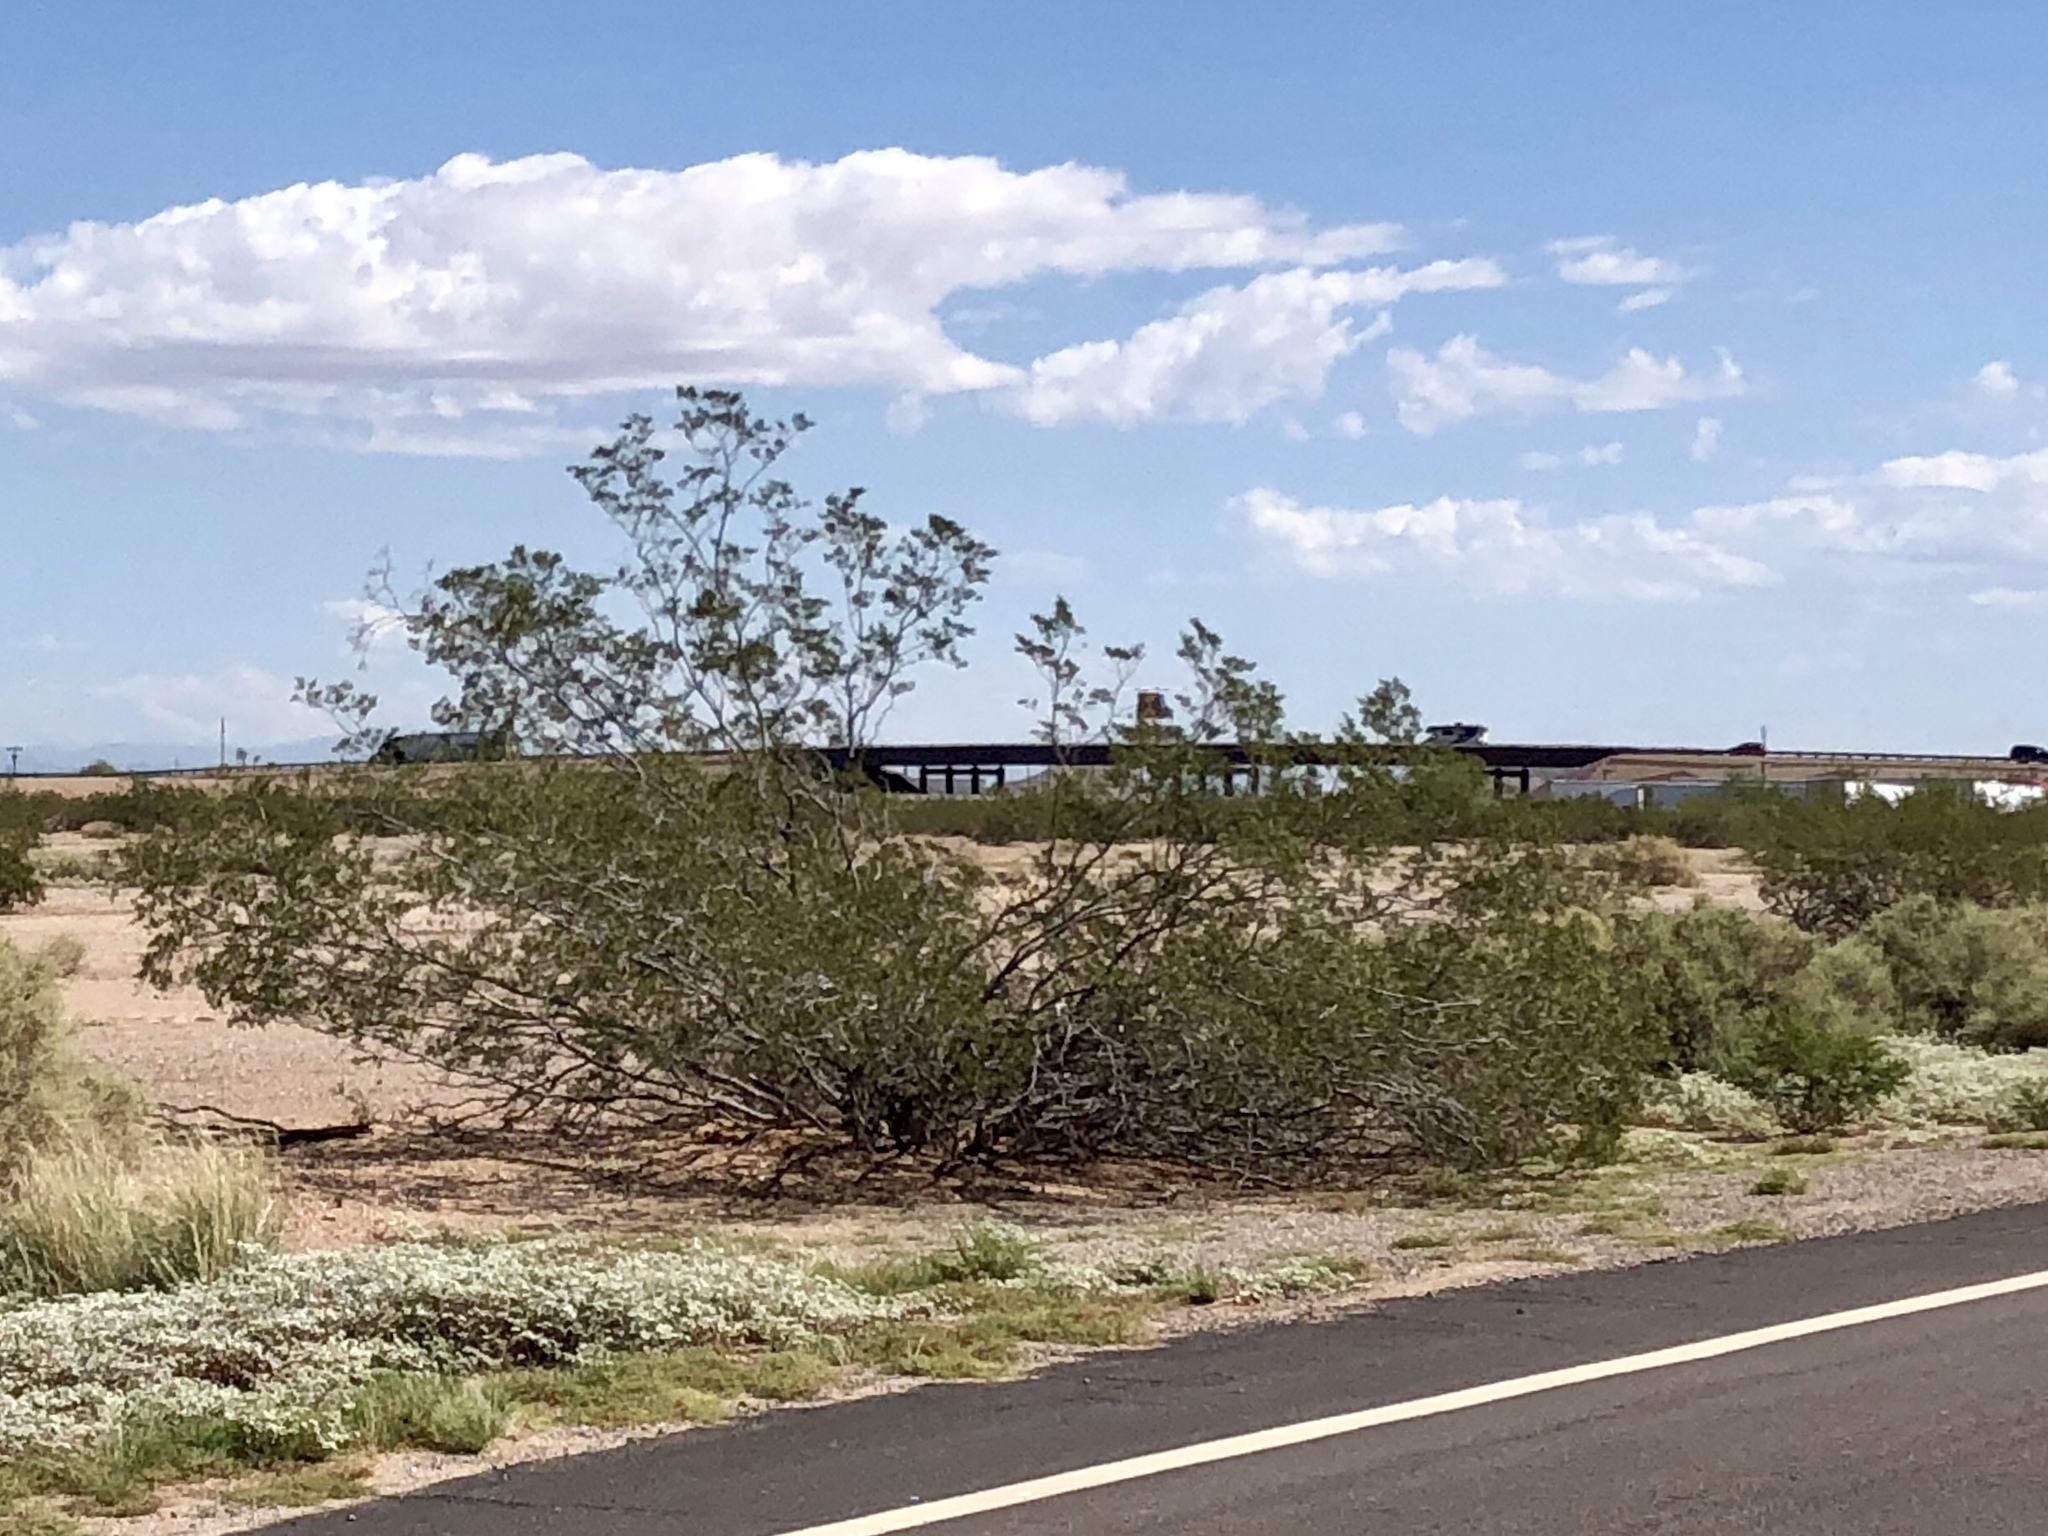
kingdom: Plantae
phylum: Tracheophyta
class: Magnoliopsida
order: Zygophyllales
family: Zygophyllaceae
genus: Larrea
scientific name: Larrea tridentata
